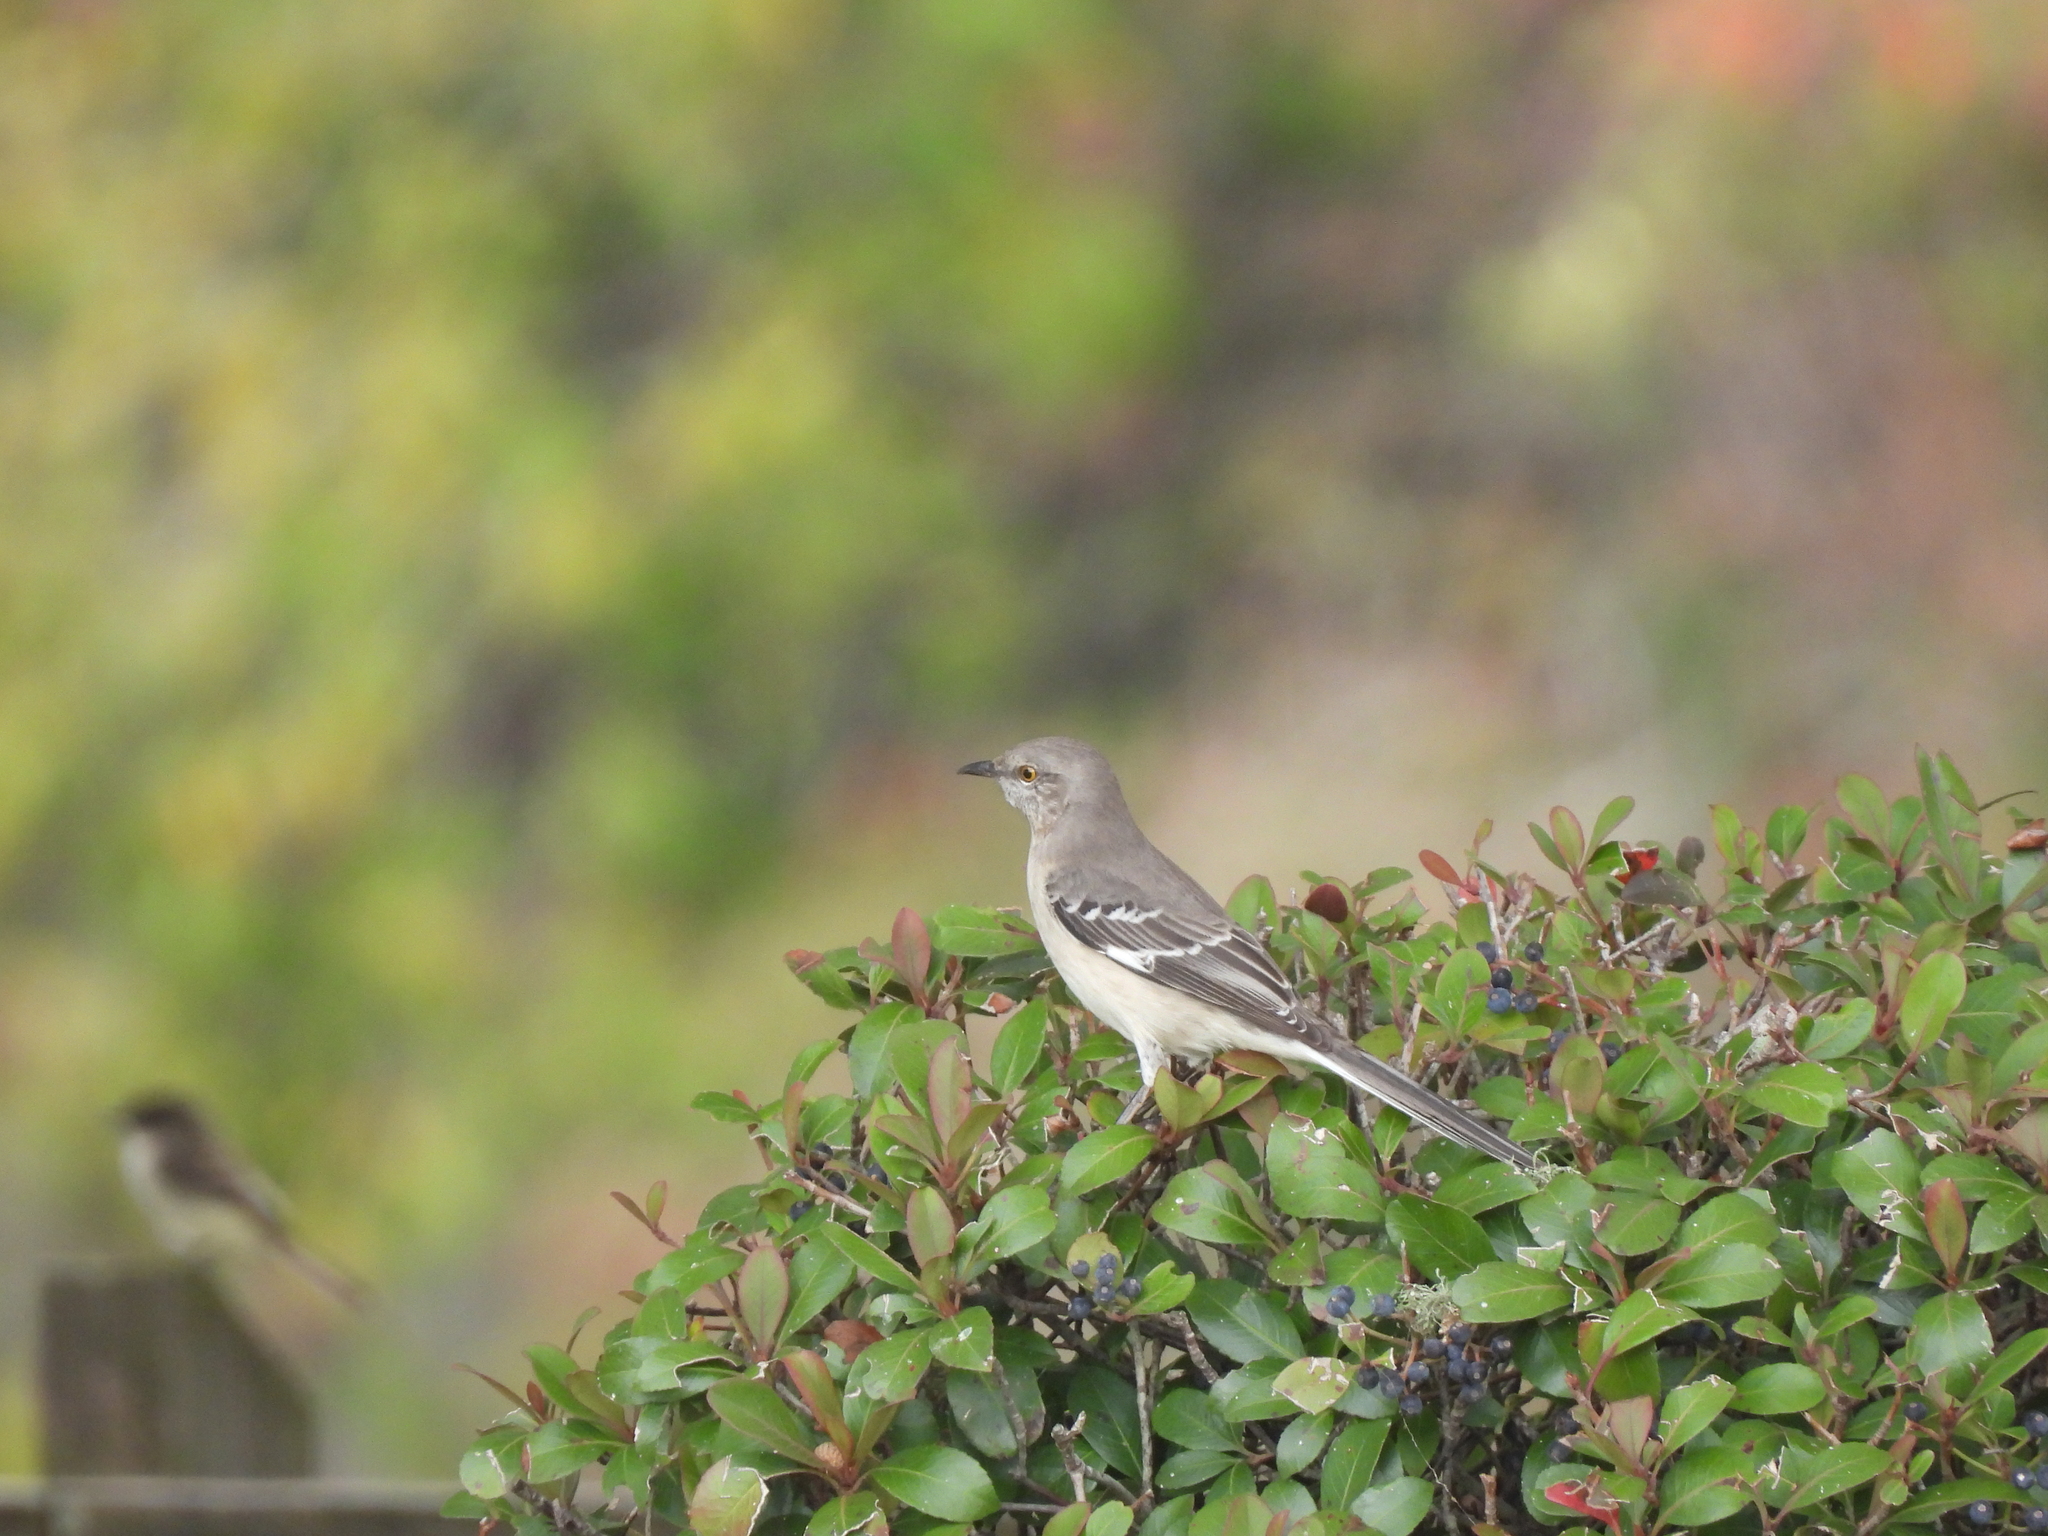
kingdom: Animalia
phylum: Chordata
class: Aves
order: Passeriformes
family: Mimidae
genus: Mimus
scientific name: Mimus polyglottos
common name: Northern mockingbird
